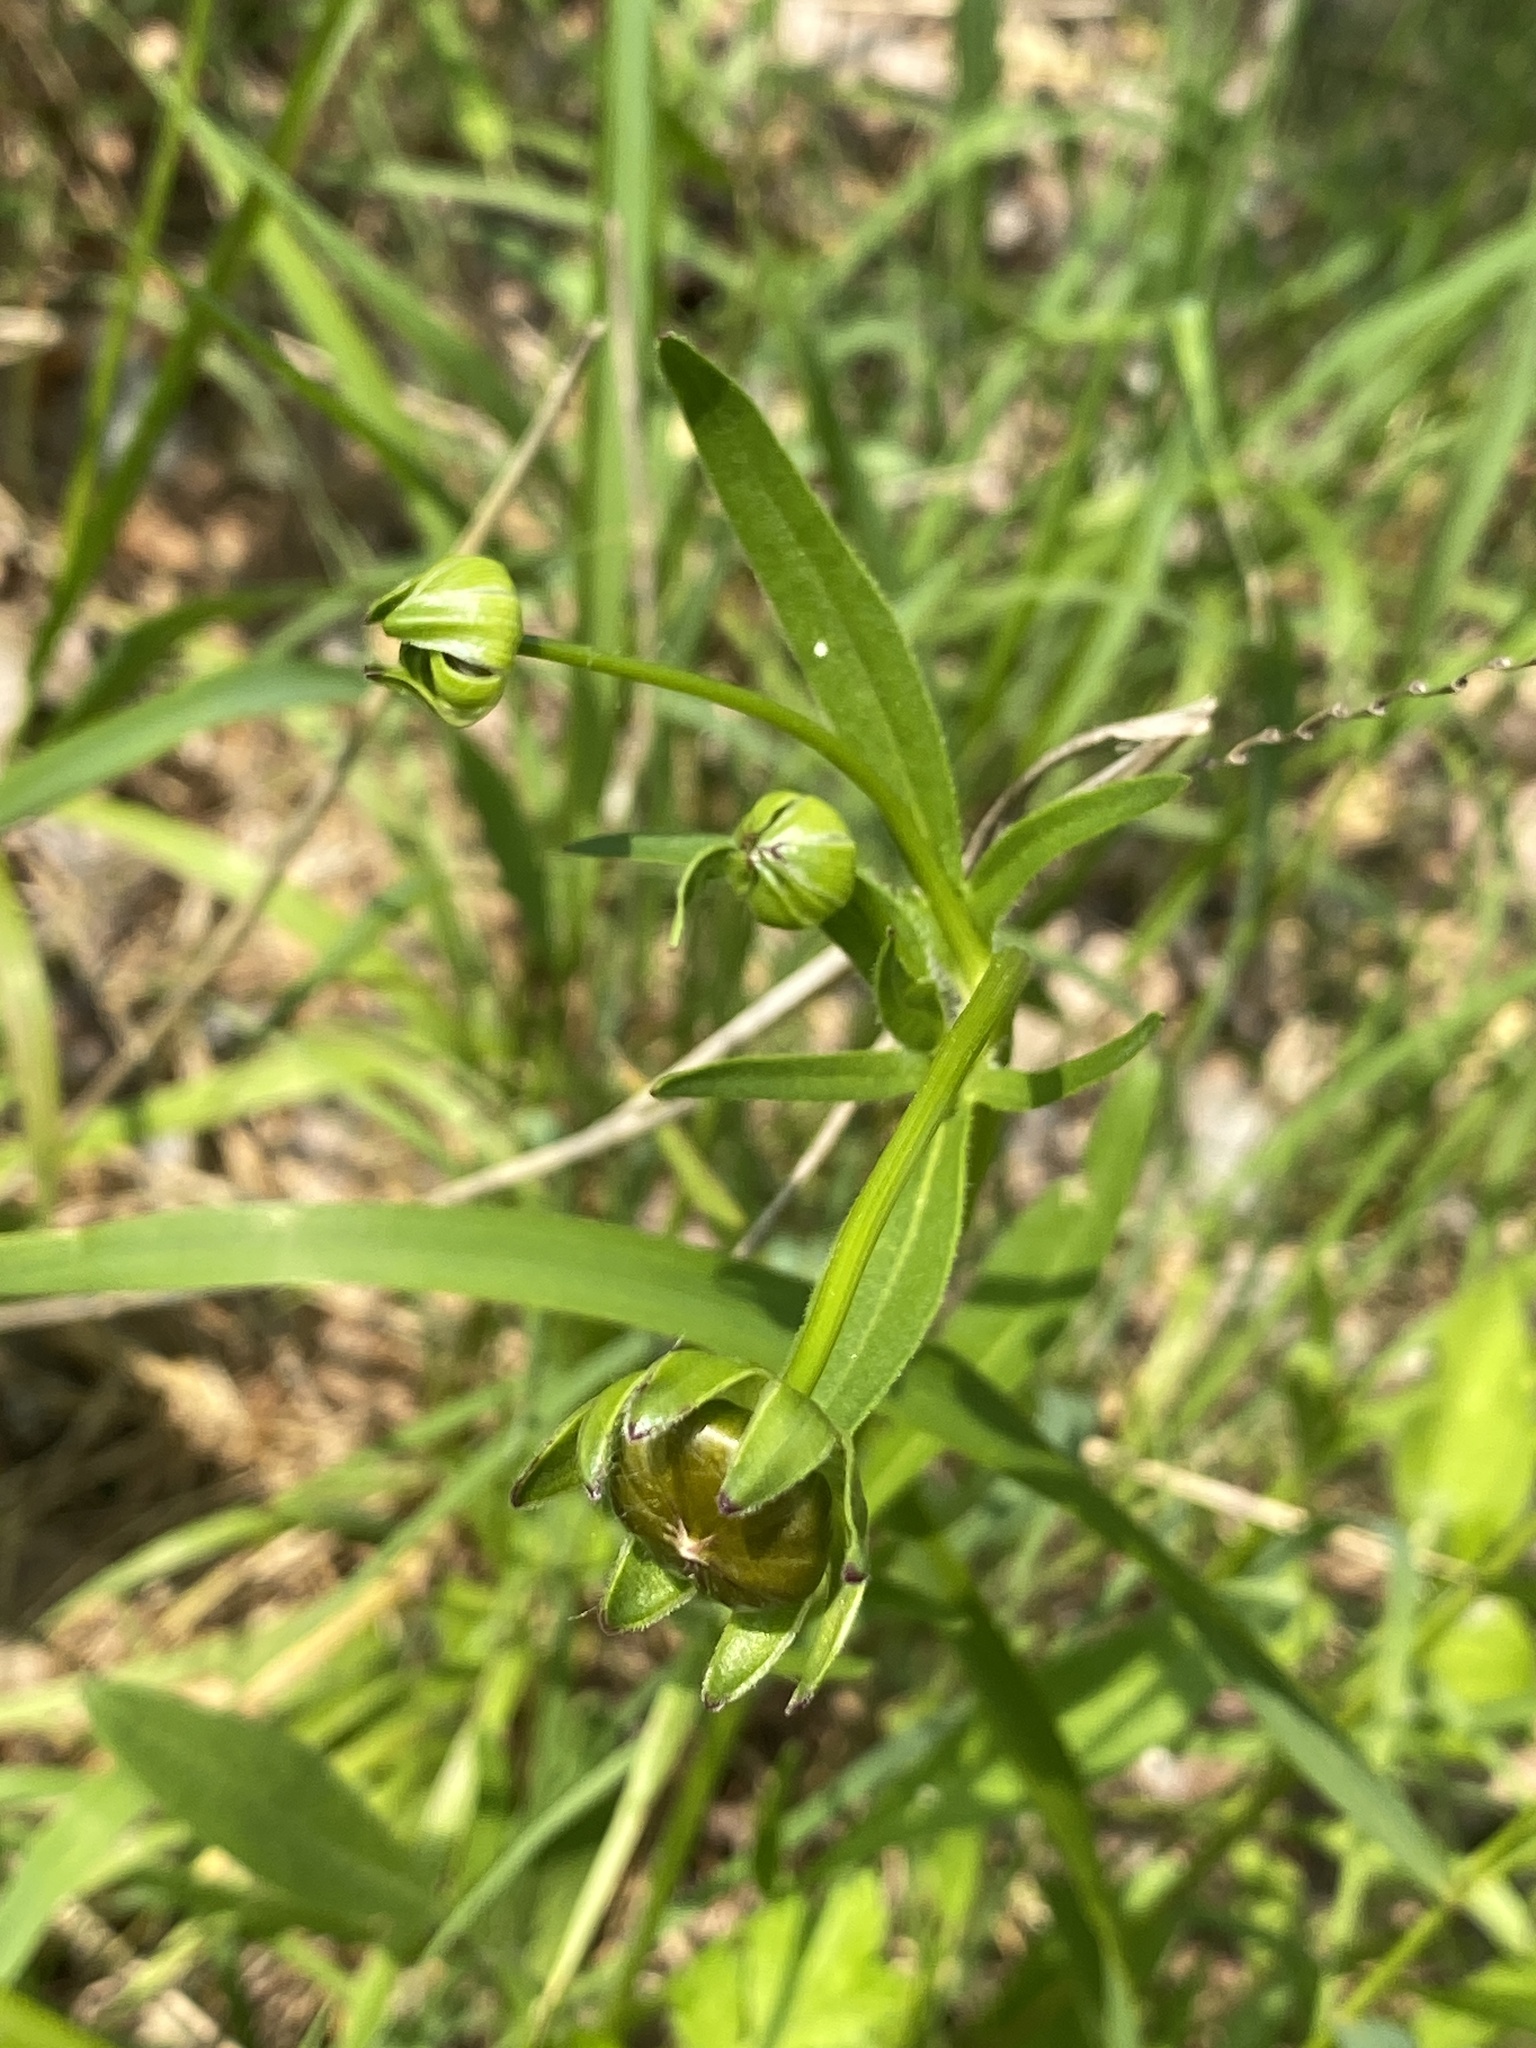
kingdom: Plantae
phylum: Tracheophyta
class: Magnoliopsida
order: Asterales
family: Asteraceae
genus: Coreopsis
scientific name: Coreopsis lanceolata
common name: Garden coreopsis
